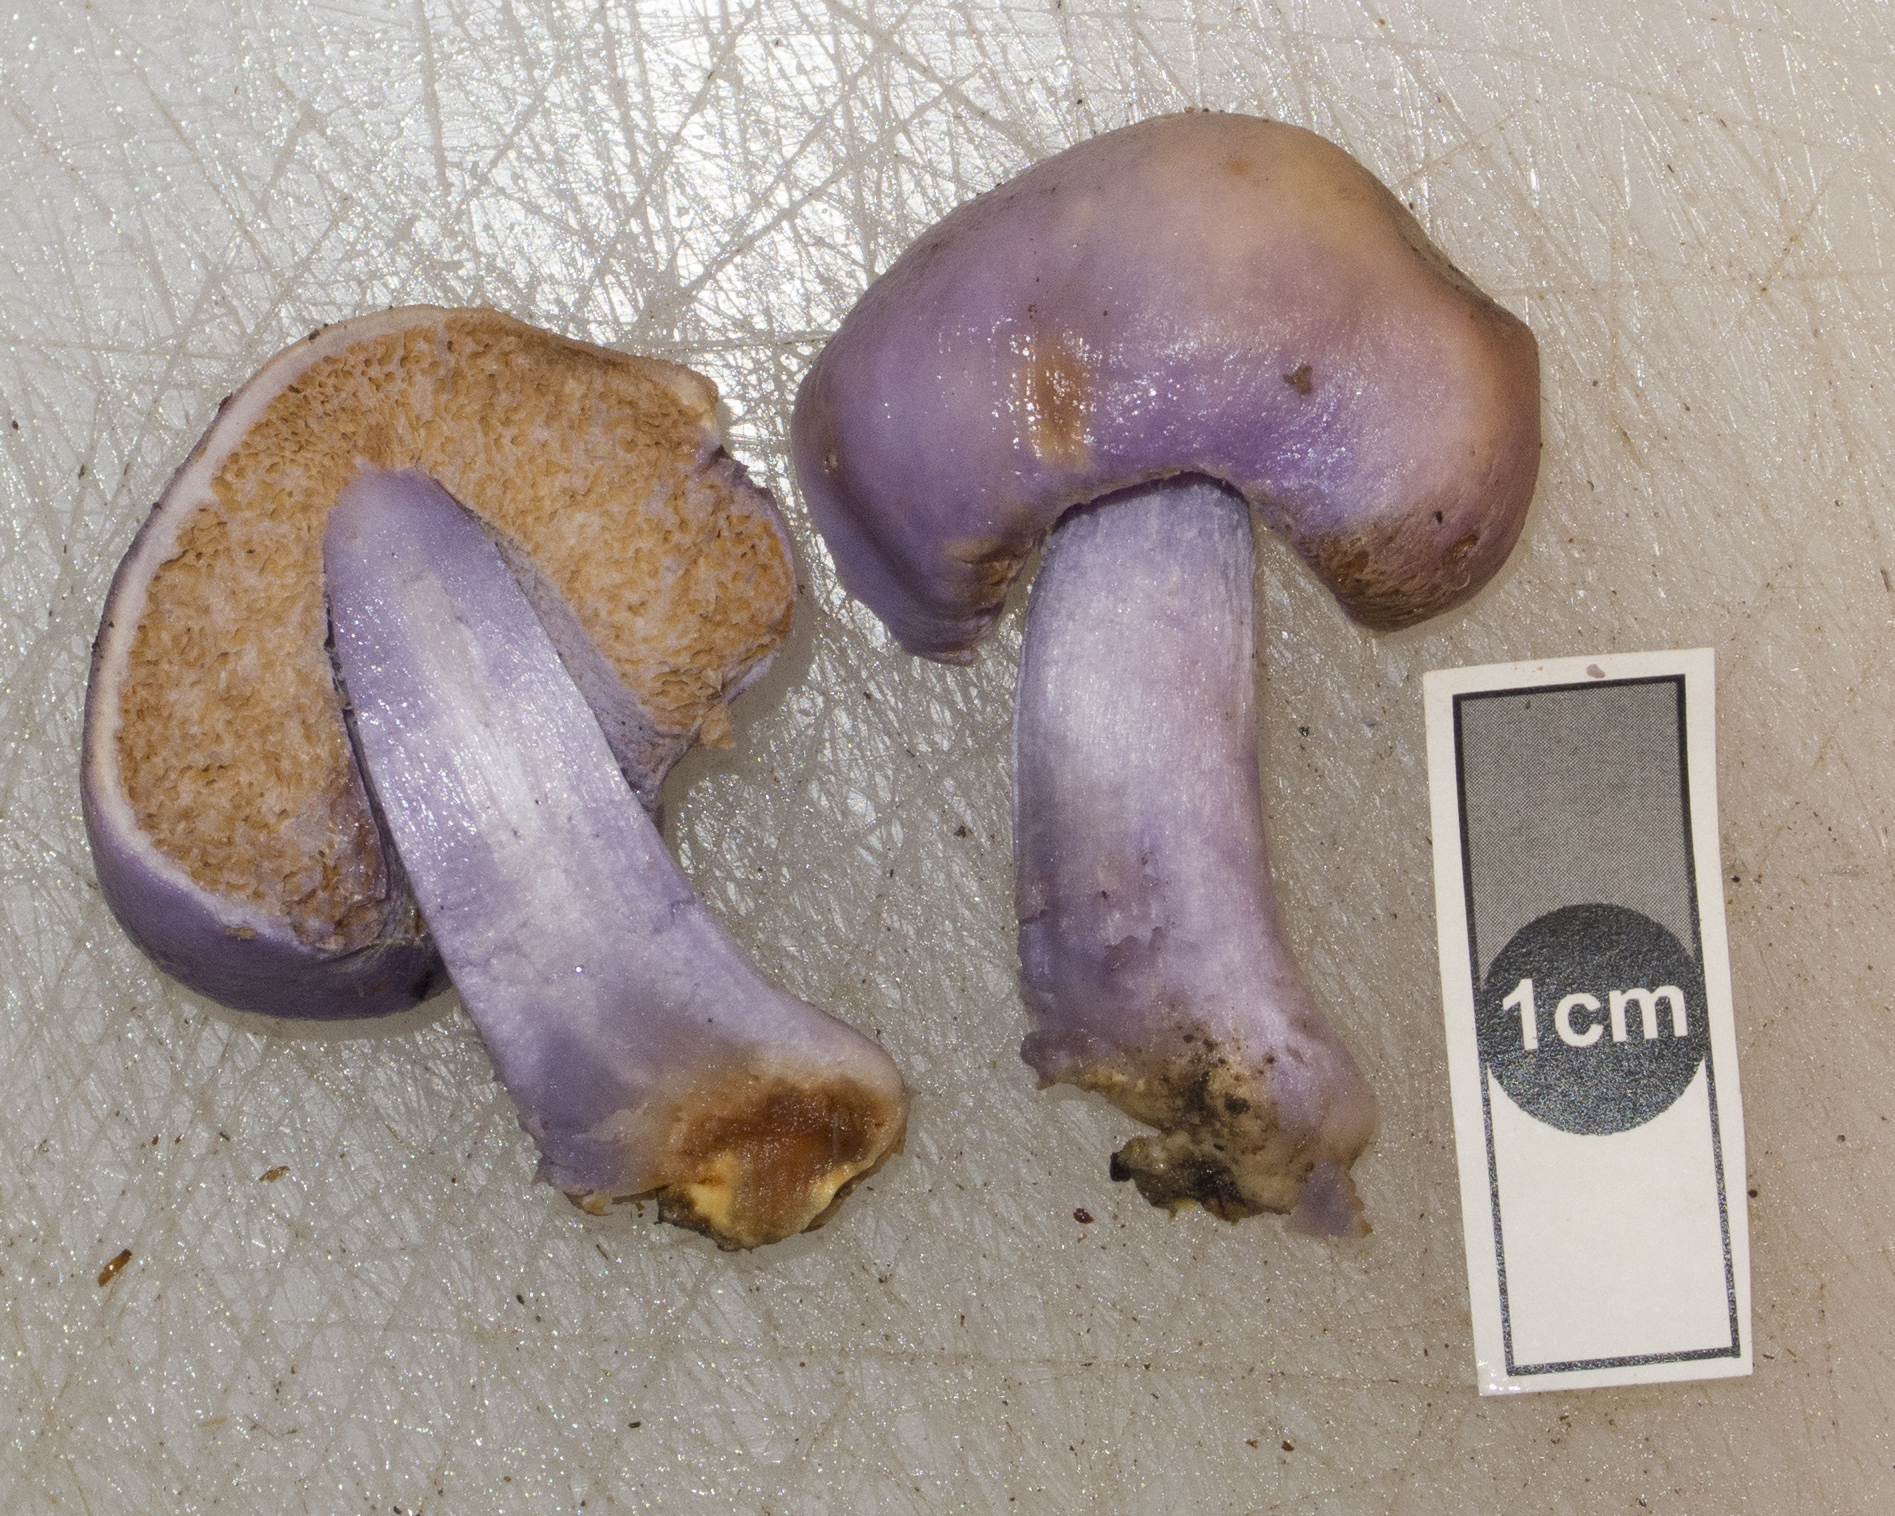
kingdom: Fungi
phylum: Basidiomycota
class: Agaricomycetes
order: Agaricales
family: Cortinariaceae
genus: Cortinarius
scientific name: Cortinarius minorisporus
